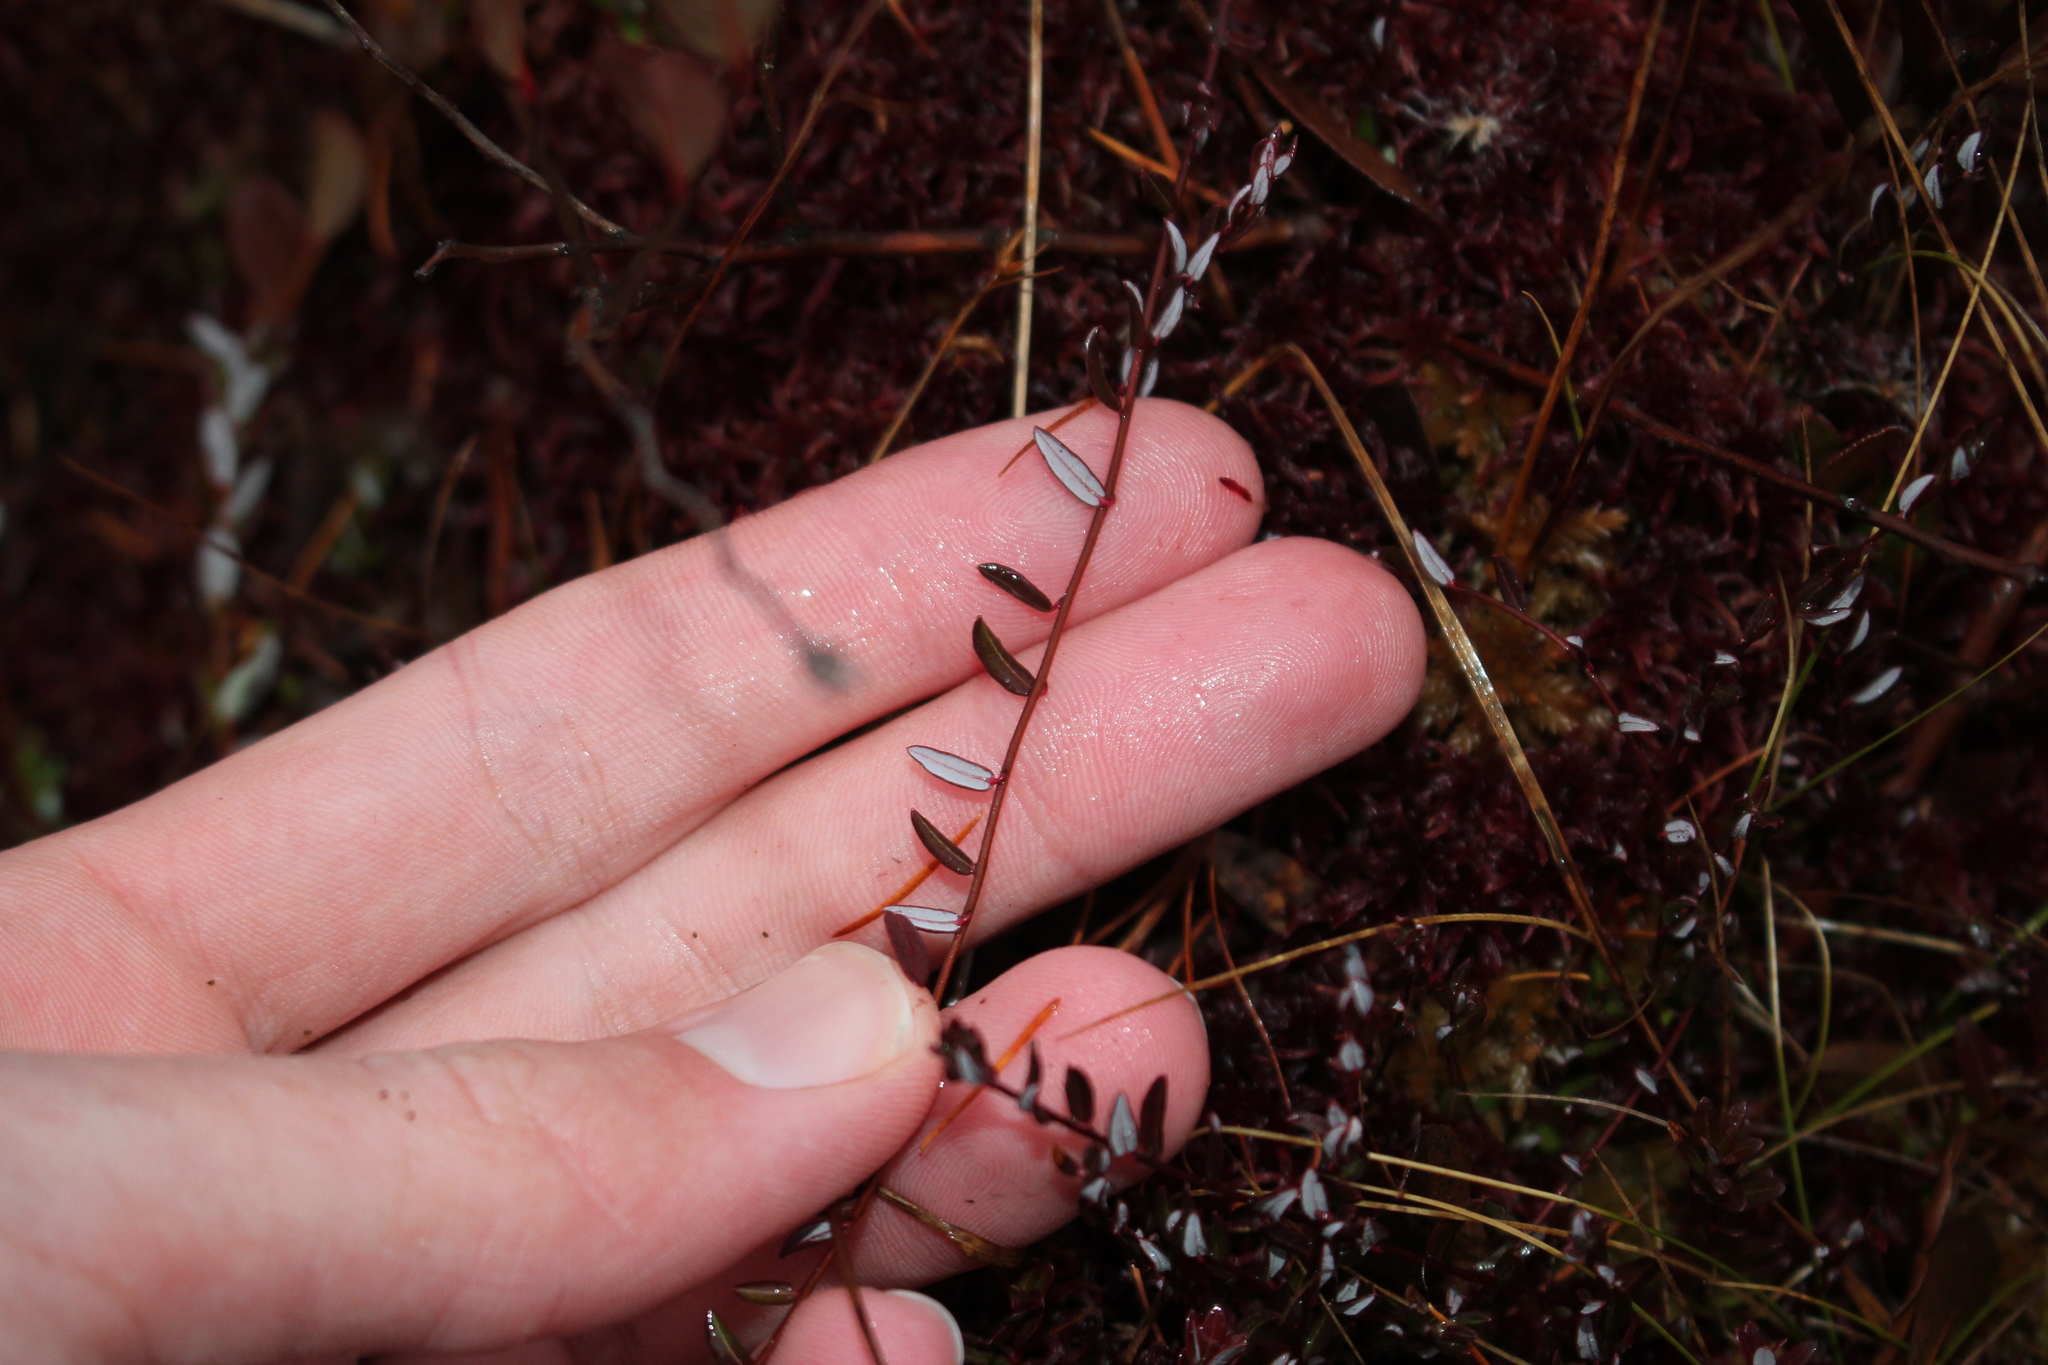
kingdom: Plantae
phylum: Tracheophyta
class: Magnoliopsida
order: Ericales
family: Ericaceae
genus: Vaccinium
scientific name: Vaccinium oxycoccos
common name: Cranberry
